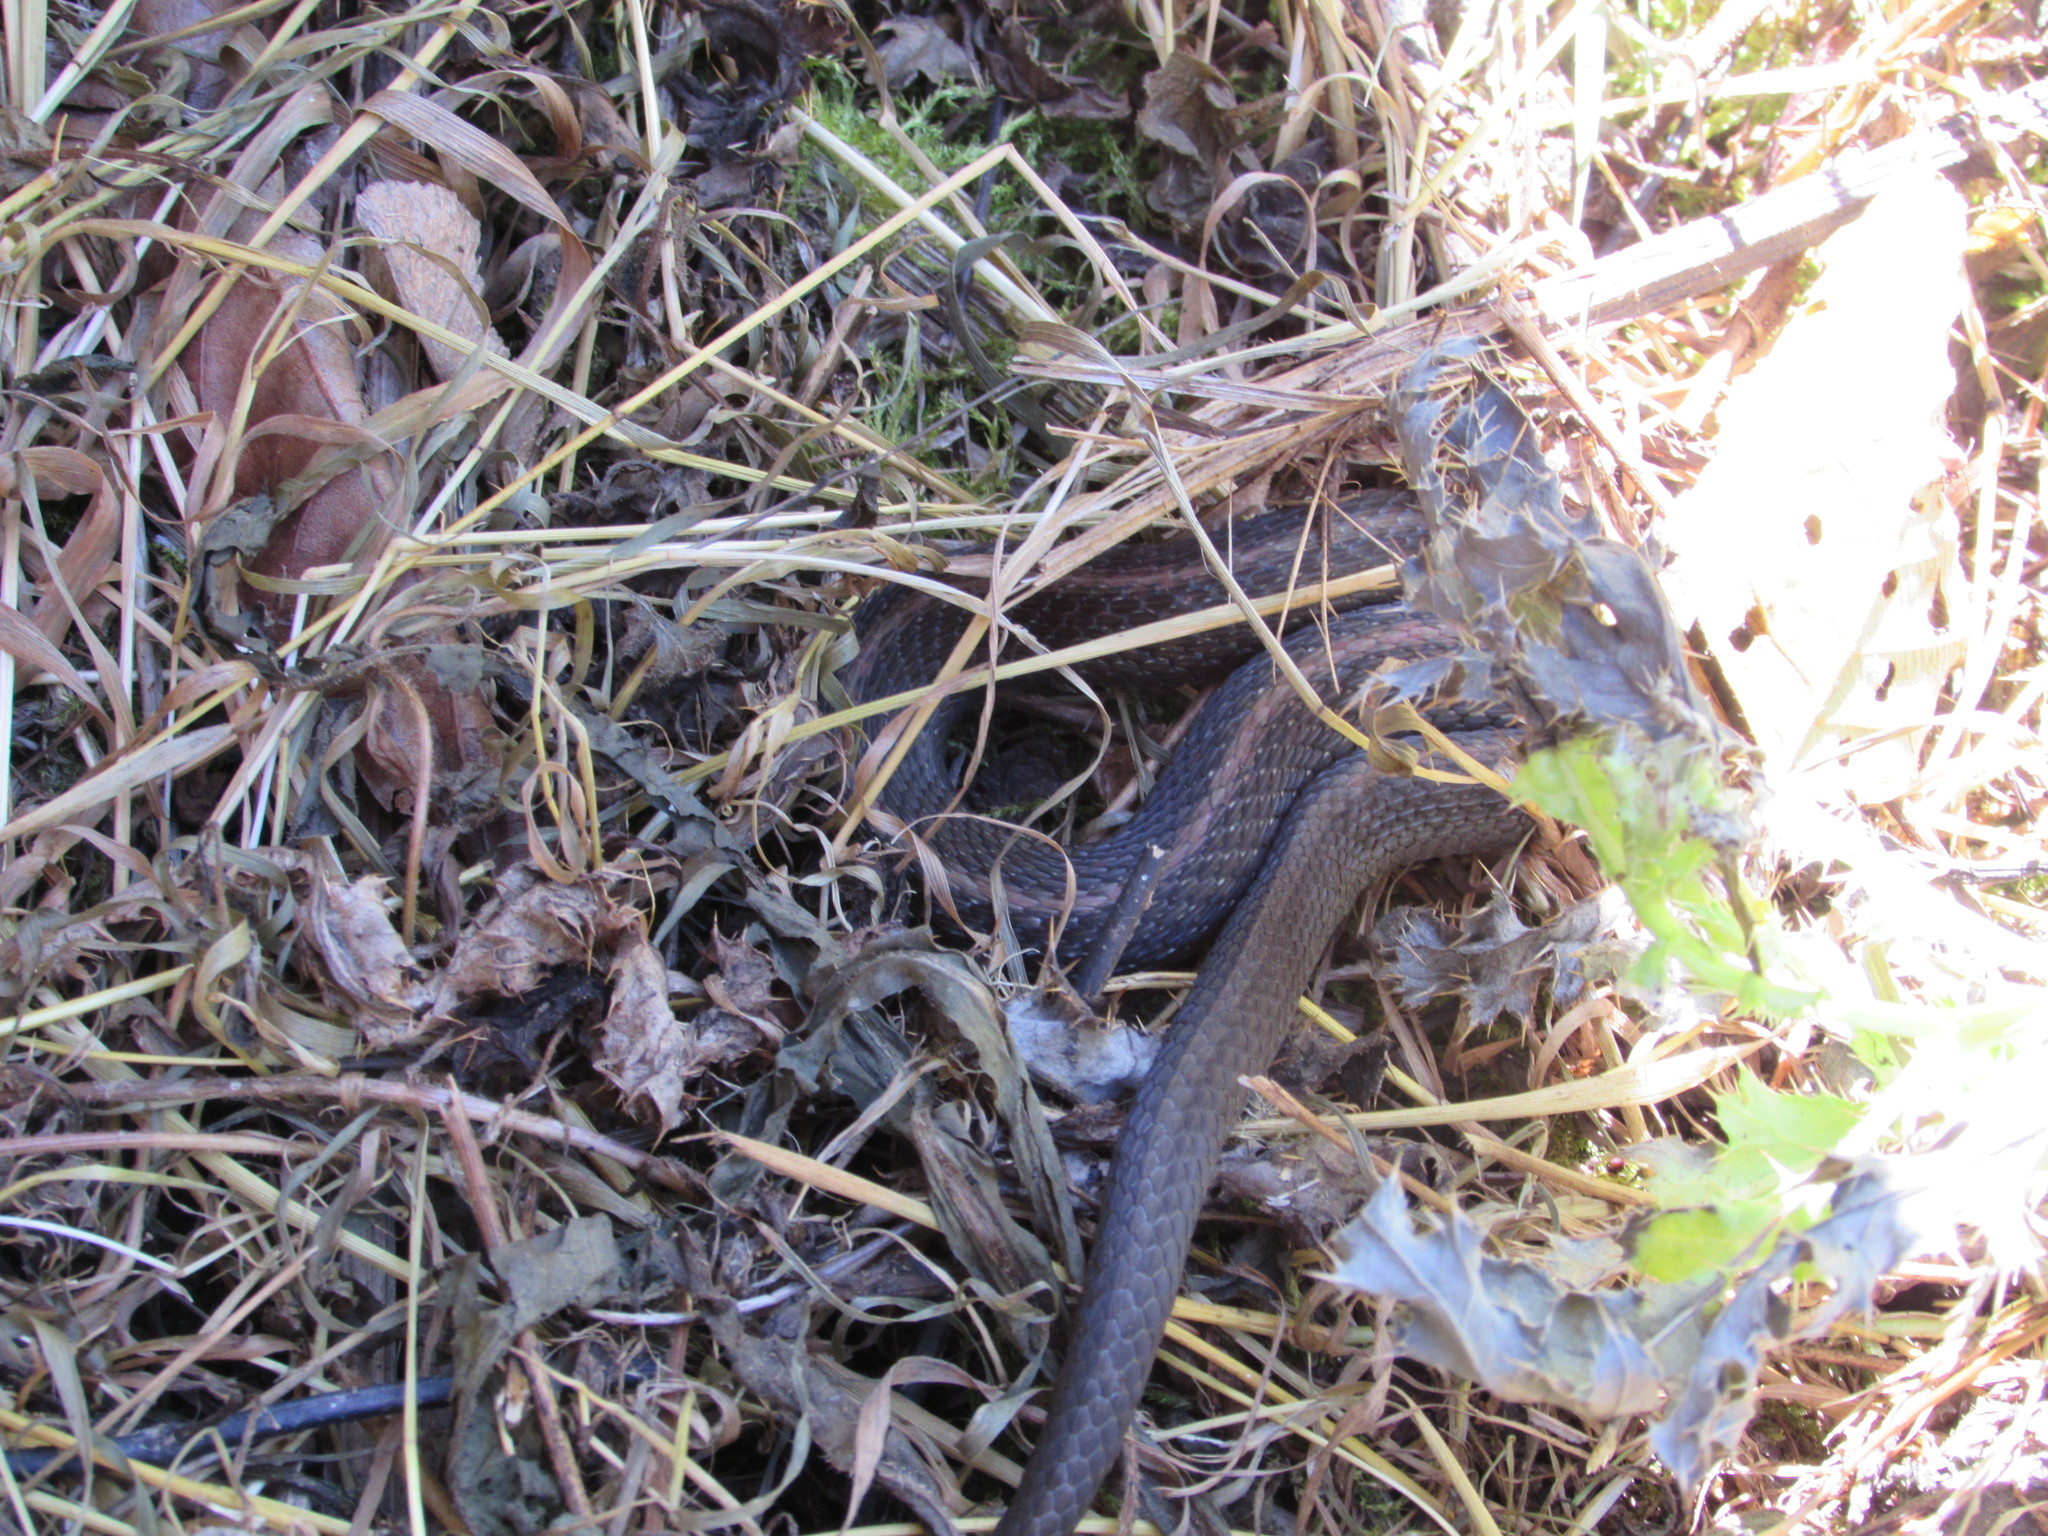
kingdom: Animalia
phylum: Chordata
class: Squamata
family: Colubridae
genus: Thamnophis
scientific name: Thamnophis ordinoides
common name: Northwestern garter snake
